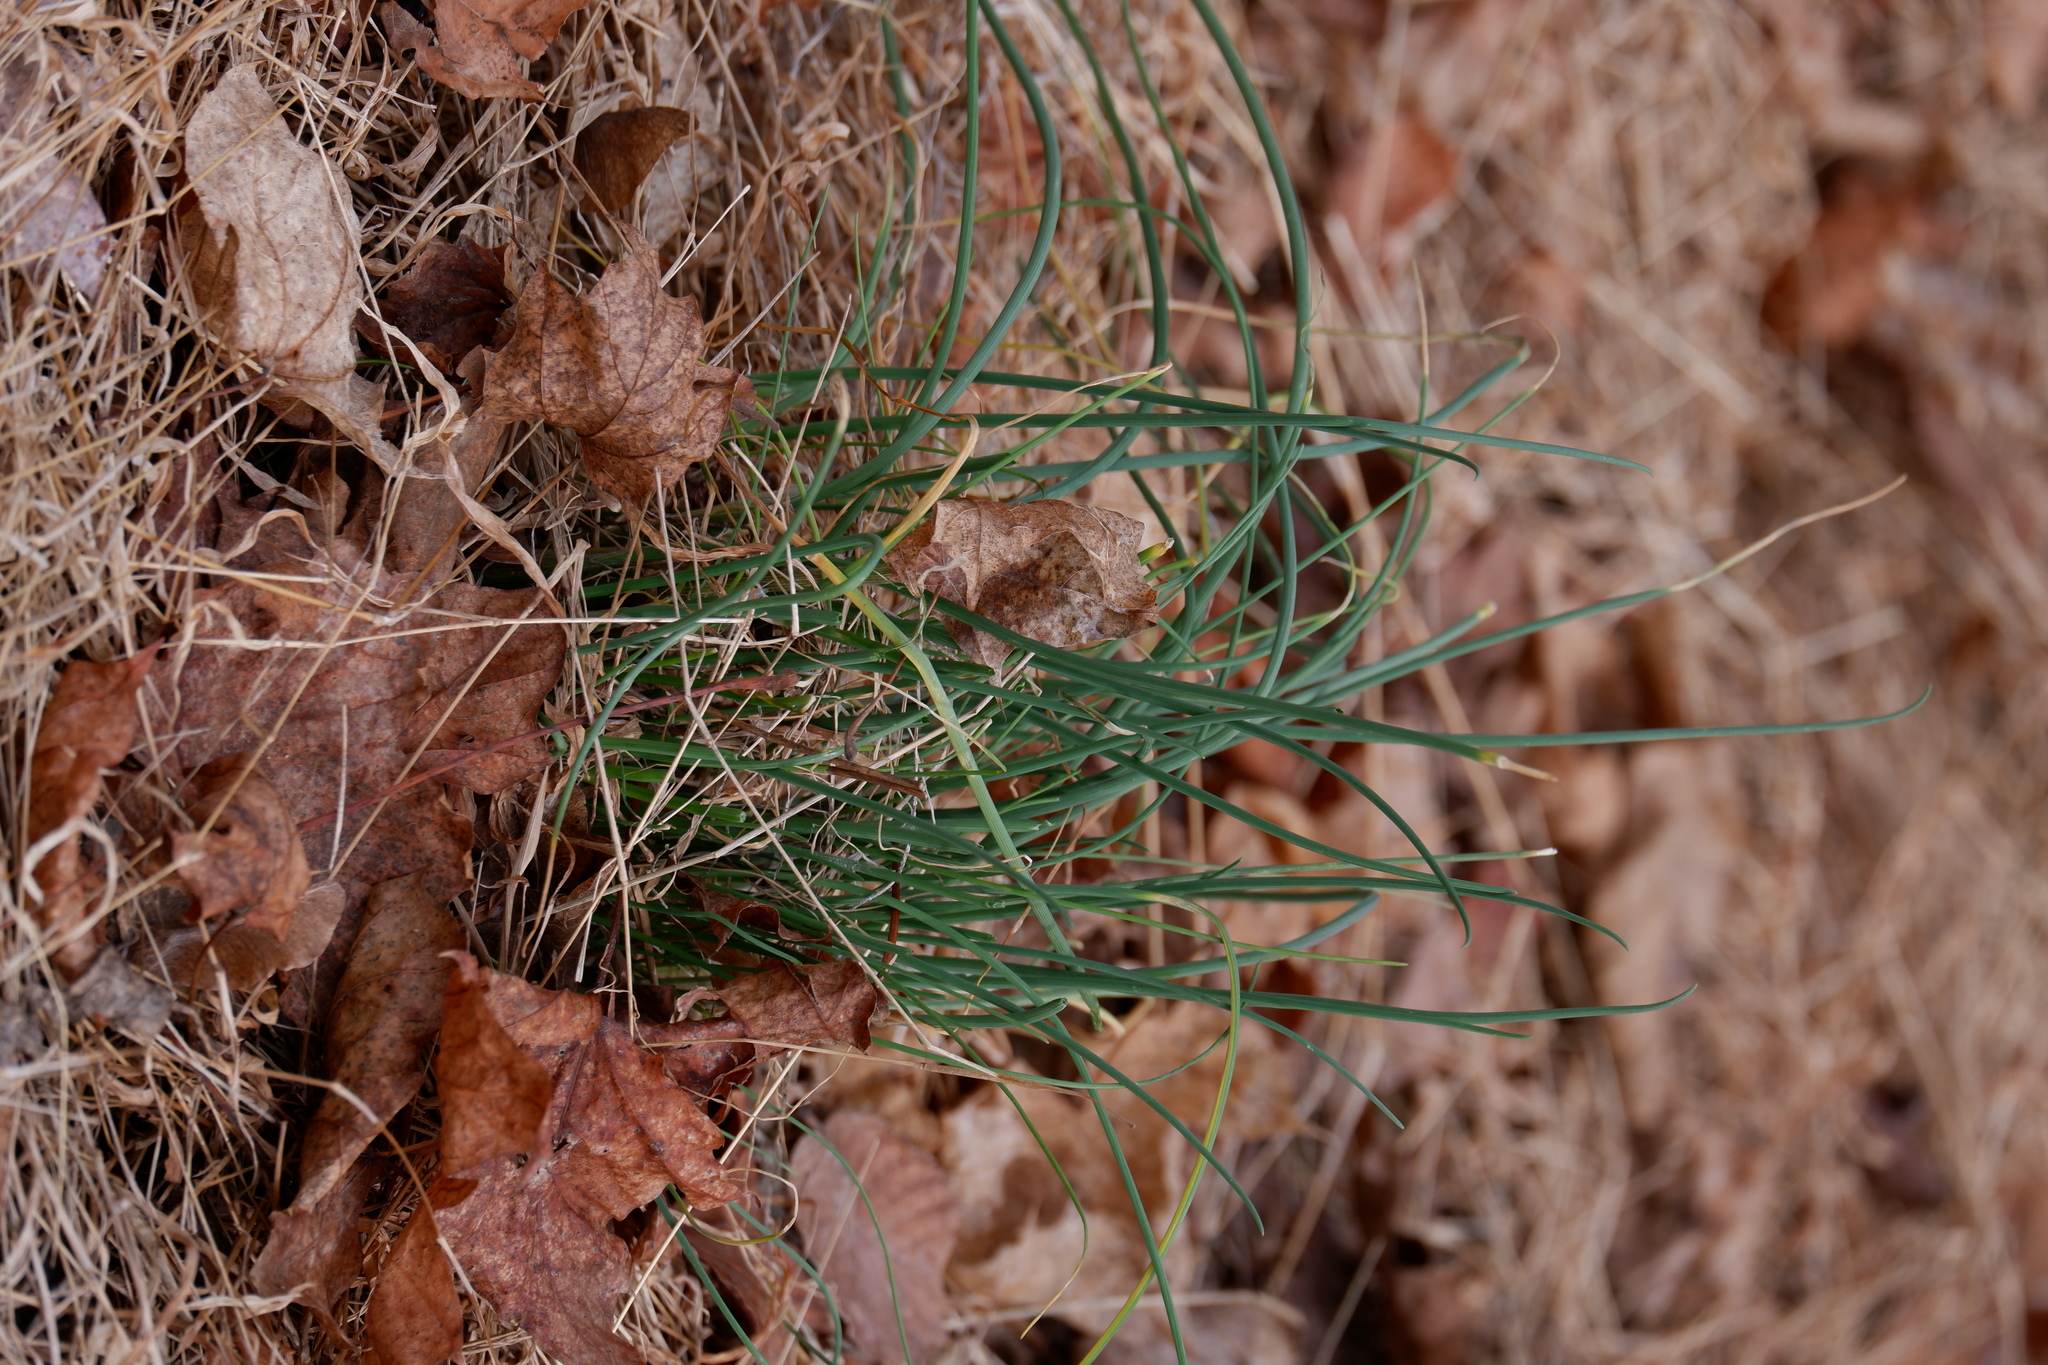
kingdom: Plantae
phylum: Tracheophyta
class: Liliopsida
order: Asparagales
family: Amaryllidaceae
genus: Allium
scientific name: Allium vineale
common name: Crow garlic
